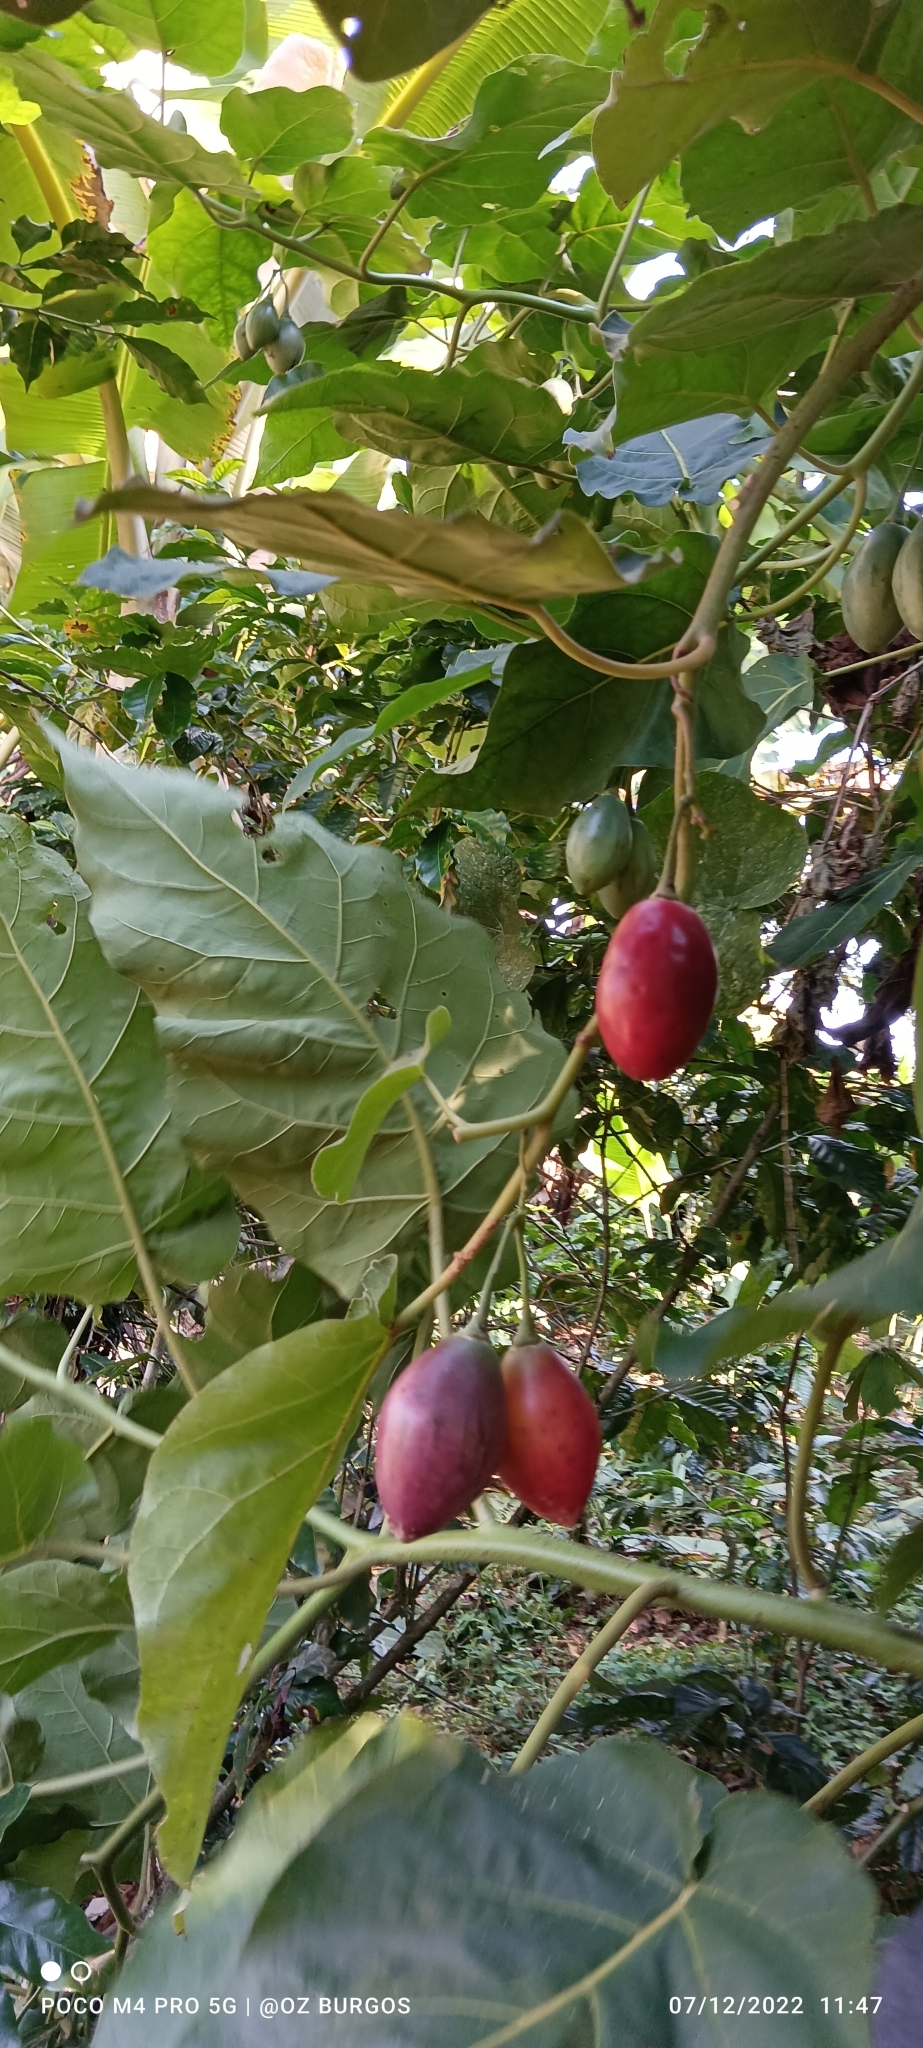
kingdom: Plantae
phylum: Tracheophyta
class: Magnoliopsida
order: Solanales
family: Solanaceae
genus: Solanum
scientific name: Solanum betaceum
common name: Tamarillo
